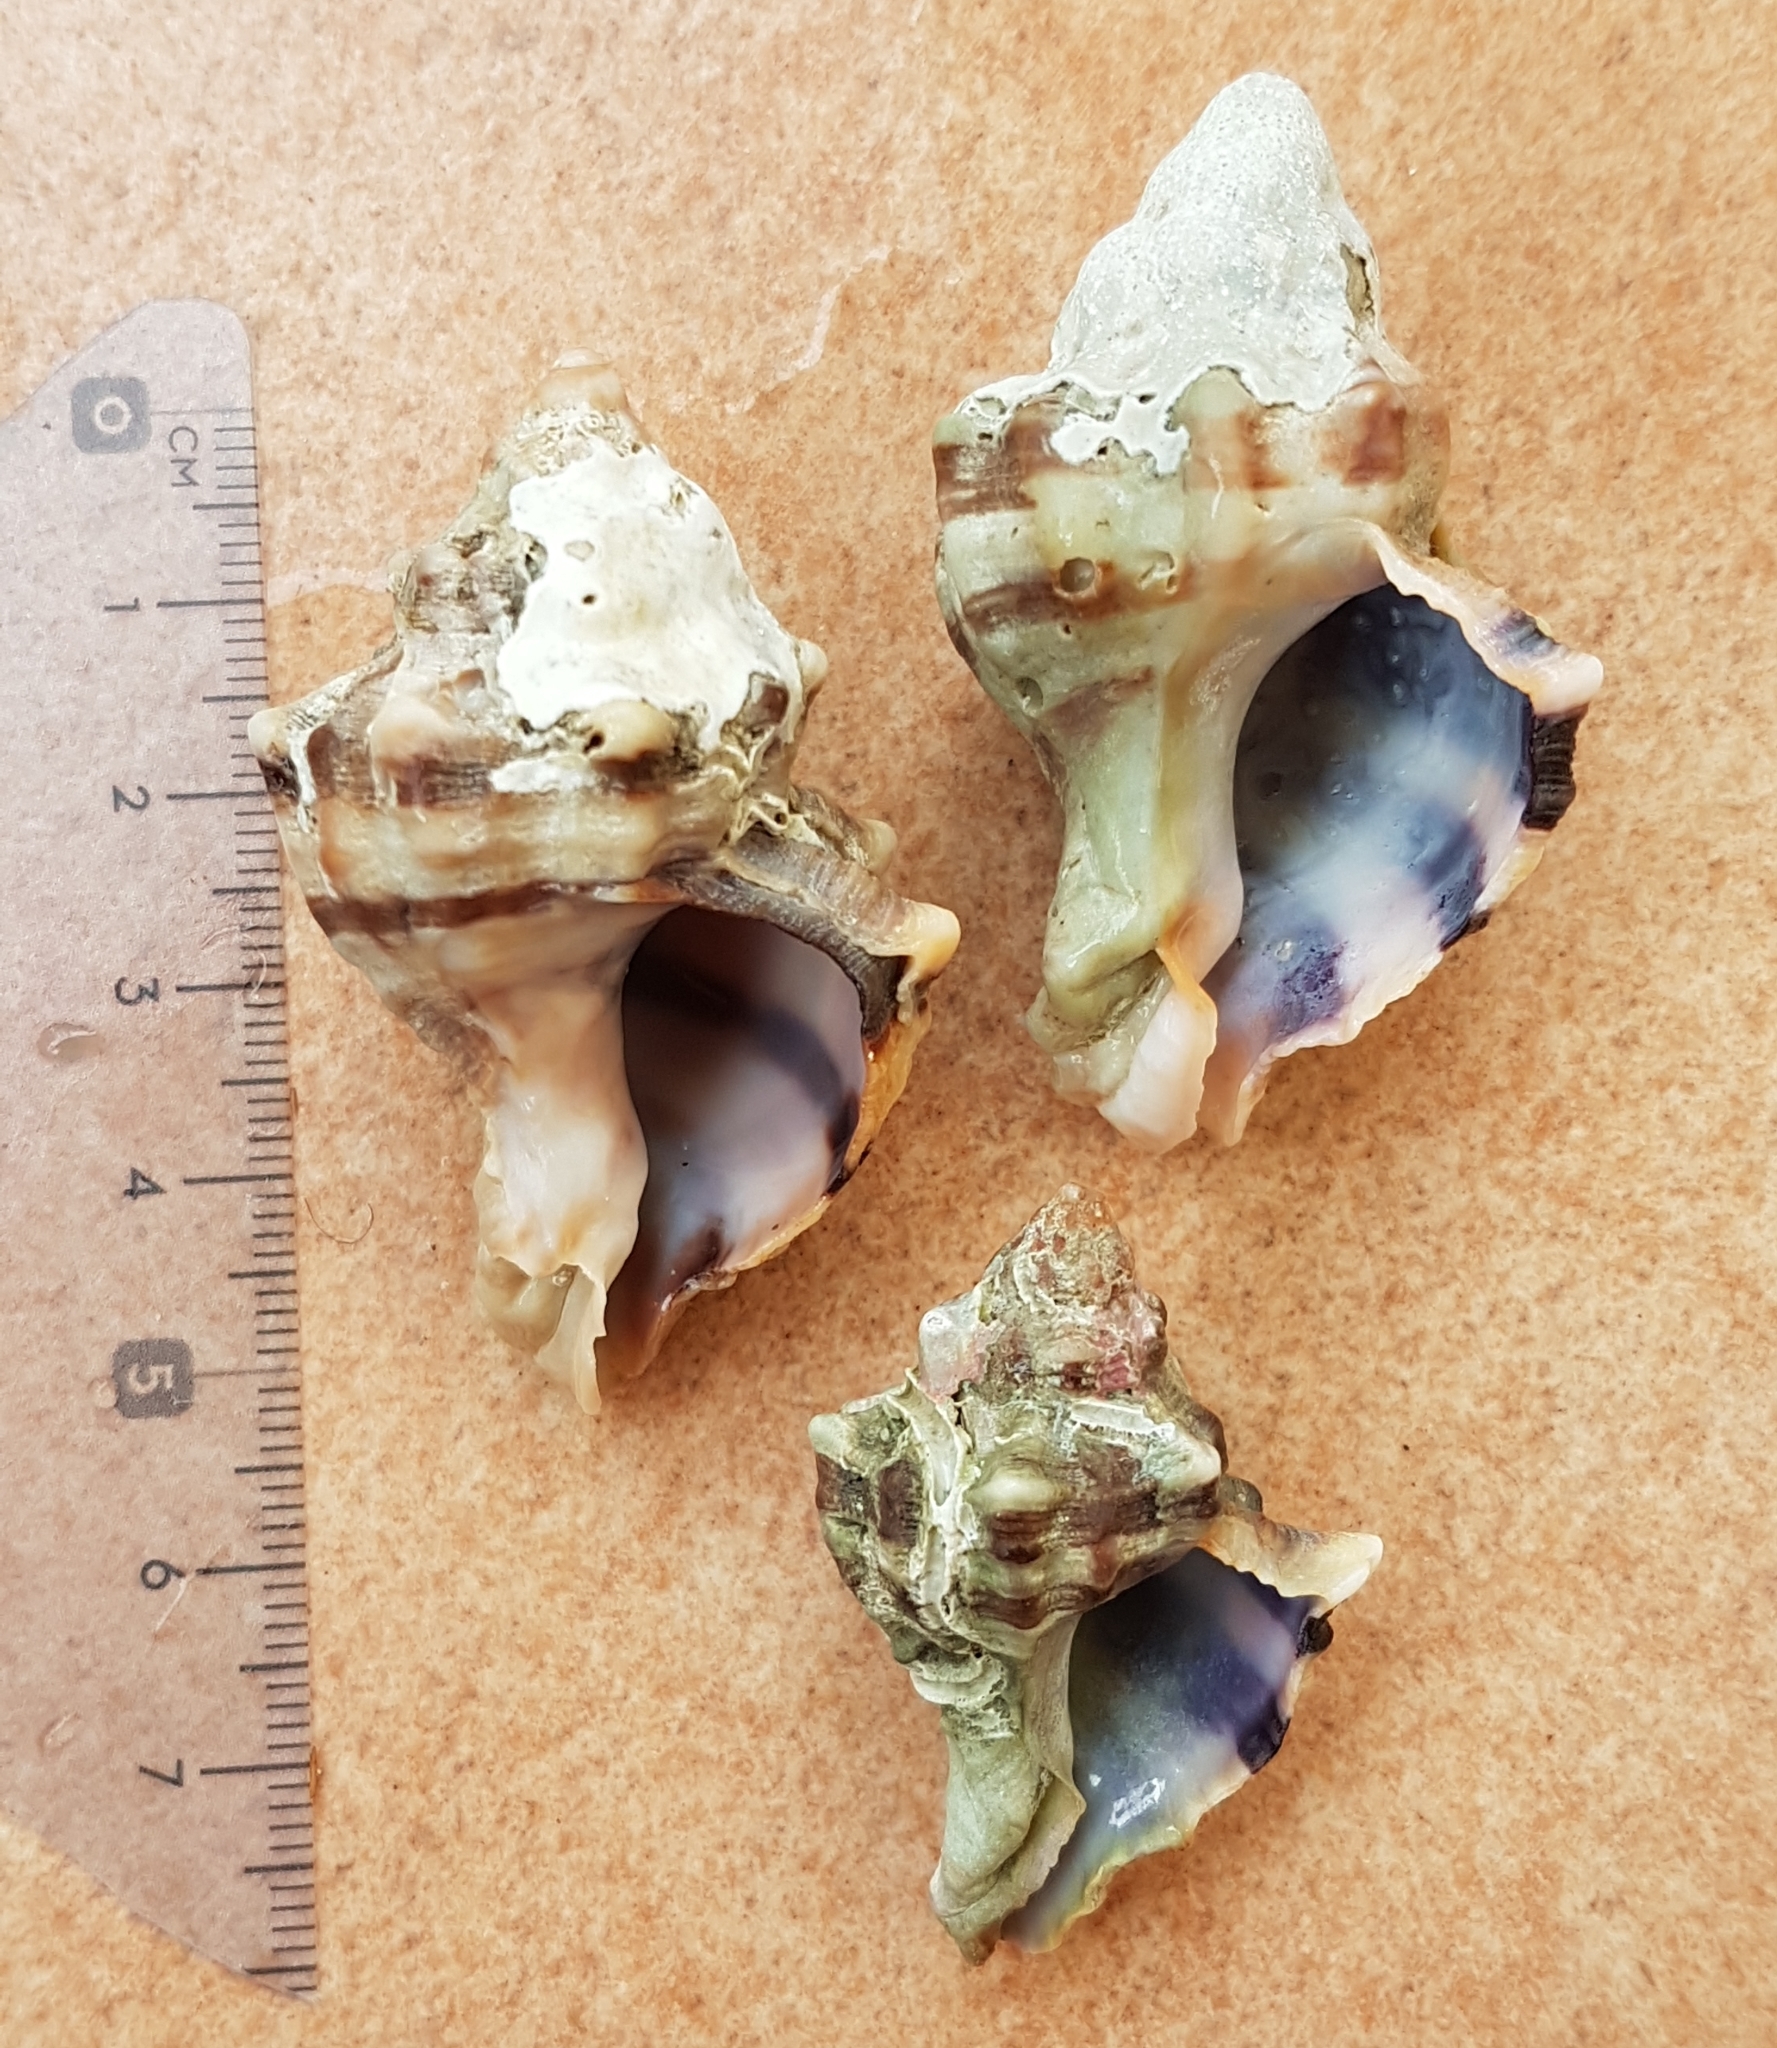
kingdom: Animalia
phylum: Mollusca
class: Gastropoda
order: Neogastropoda
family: Muricidae
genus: Hexaplex
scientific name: Hexaplex trunculus
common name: Banded dye-murex
